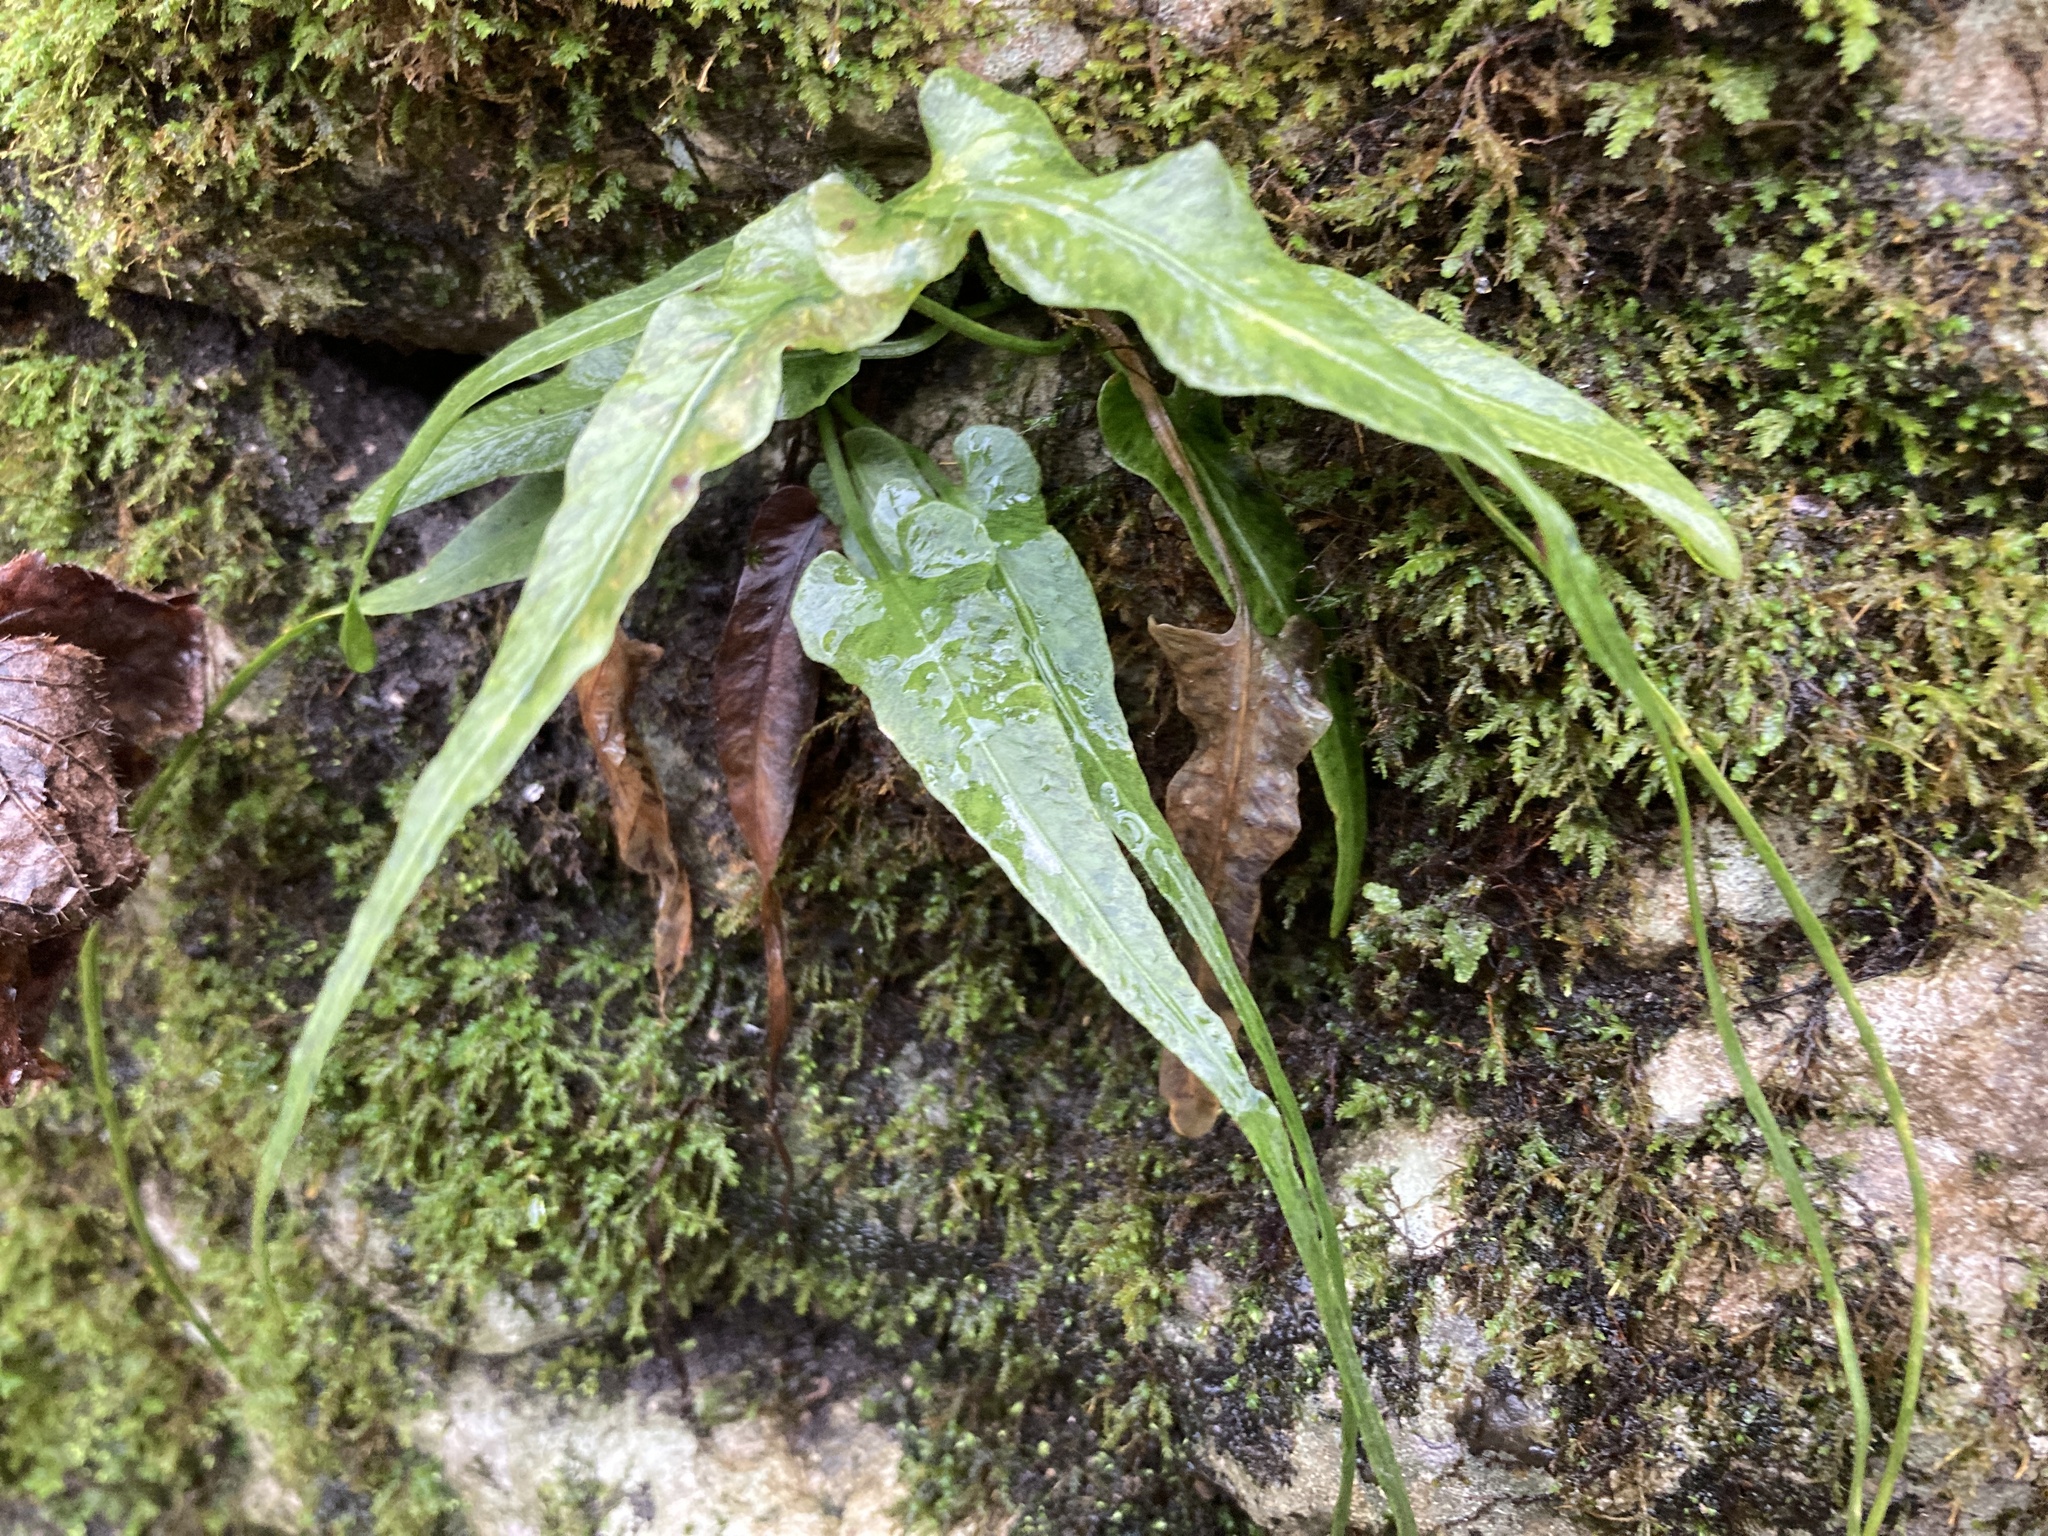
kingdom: Plantae
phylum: Tracheophyta
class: Polypodiopsida
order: Polypodiales
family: Aspleniaceae
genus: Asplenium
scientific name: Asplenium rhizophyllum
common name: Walking fern
